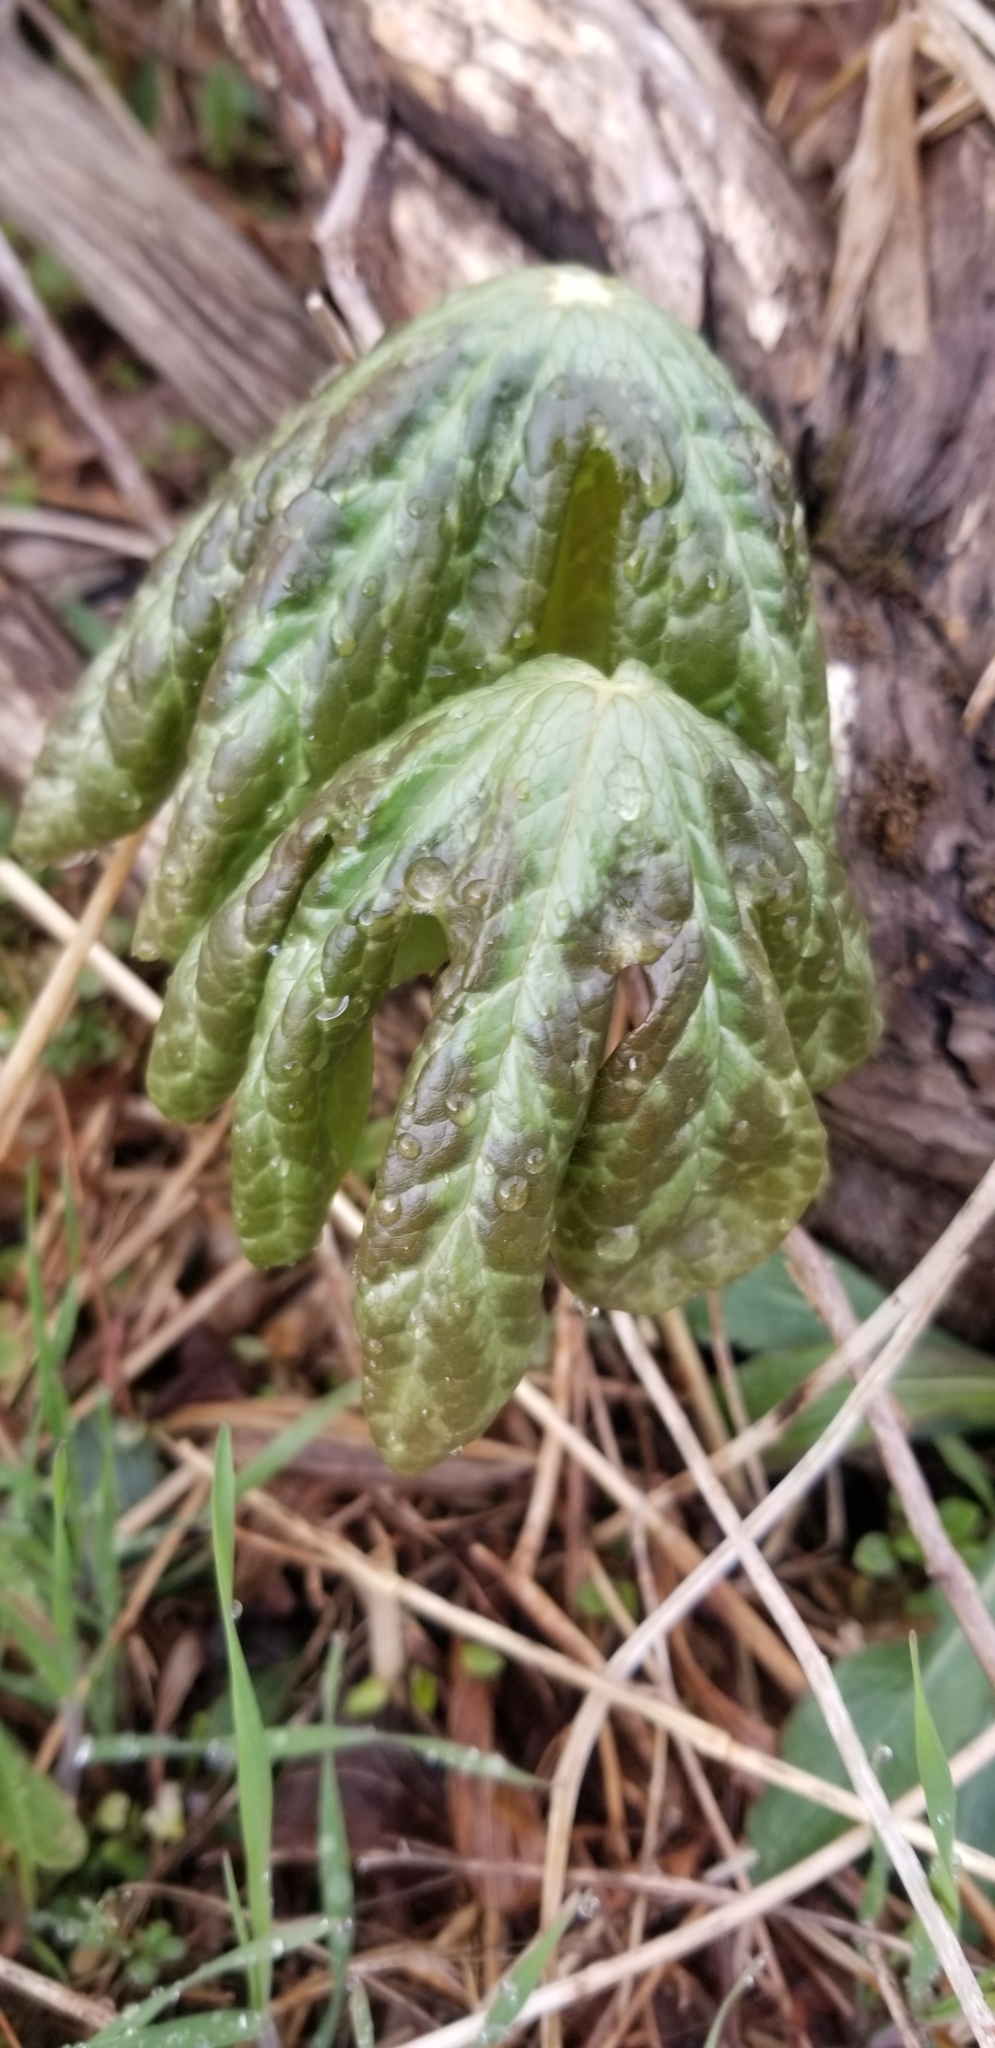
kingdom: Plantae
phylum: Tracheophyta
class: Magnoliopsida
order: Ranunculales
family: Berberidaceae
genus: Podophyllum
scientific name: Podophyllum peltatum
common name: Wild mandrake
